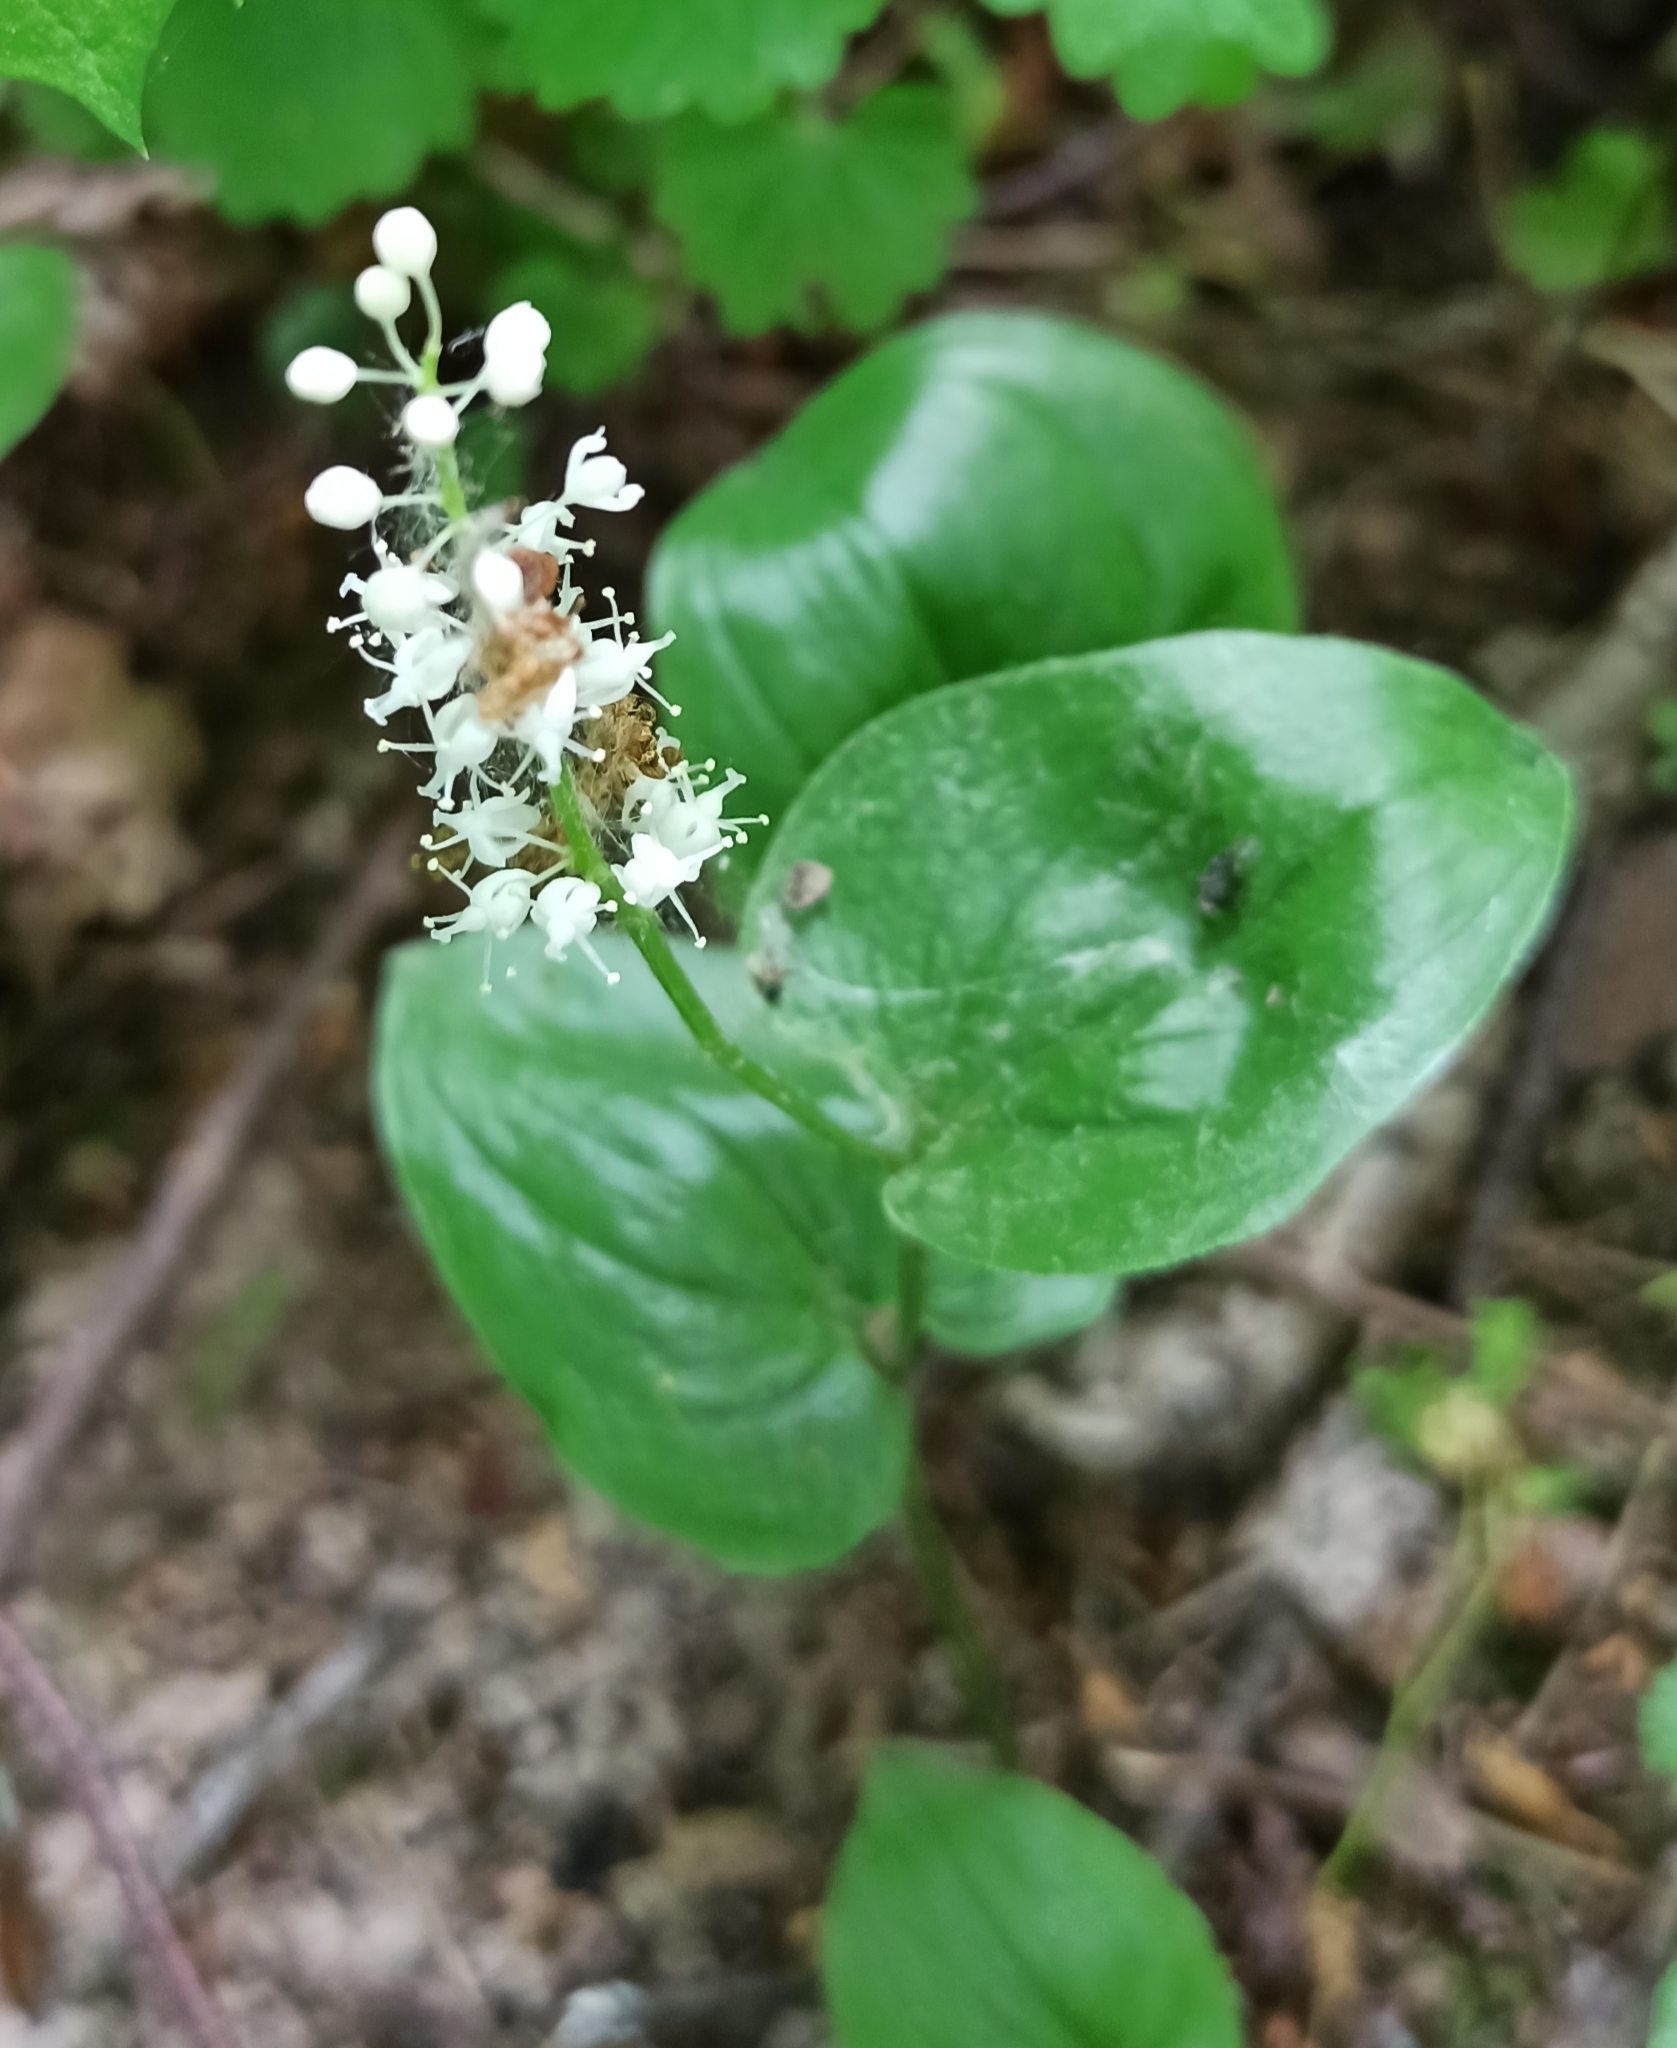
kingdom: Plantae
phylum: Tracheophyta
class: Liliopsida
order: Asparagales
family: Asparagaceae
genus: Maianthemum
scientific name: Maianthemum bifolium
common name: May lily
